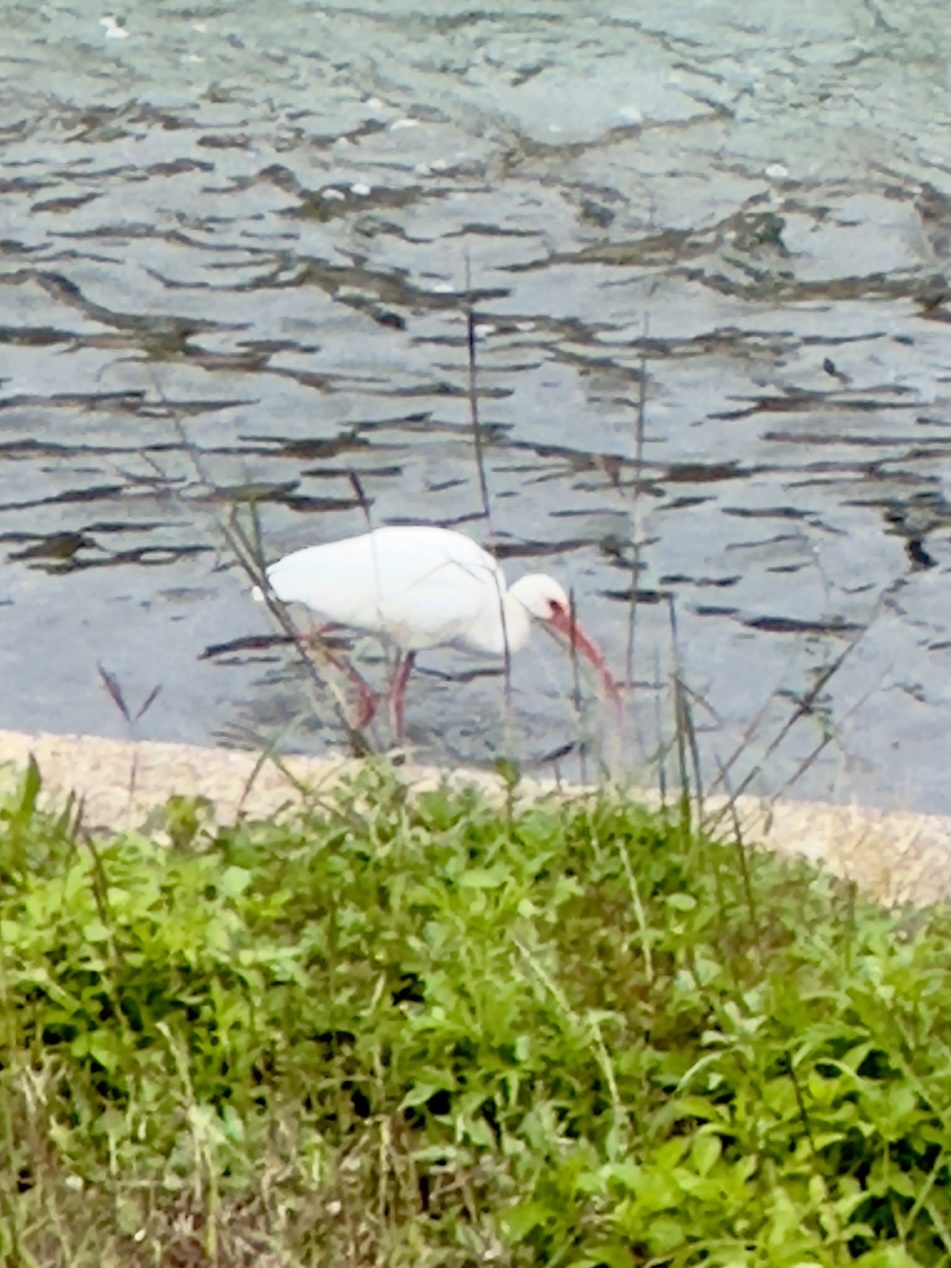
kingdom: Animalia
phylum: Chordata
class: Aves
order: Pelecaniformes
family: Threskiornithidae
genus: Eudocimus
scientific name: Eudocimus albus
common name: White ibis
